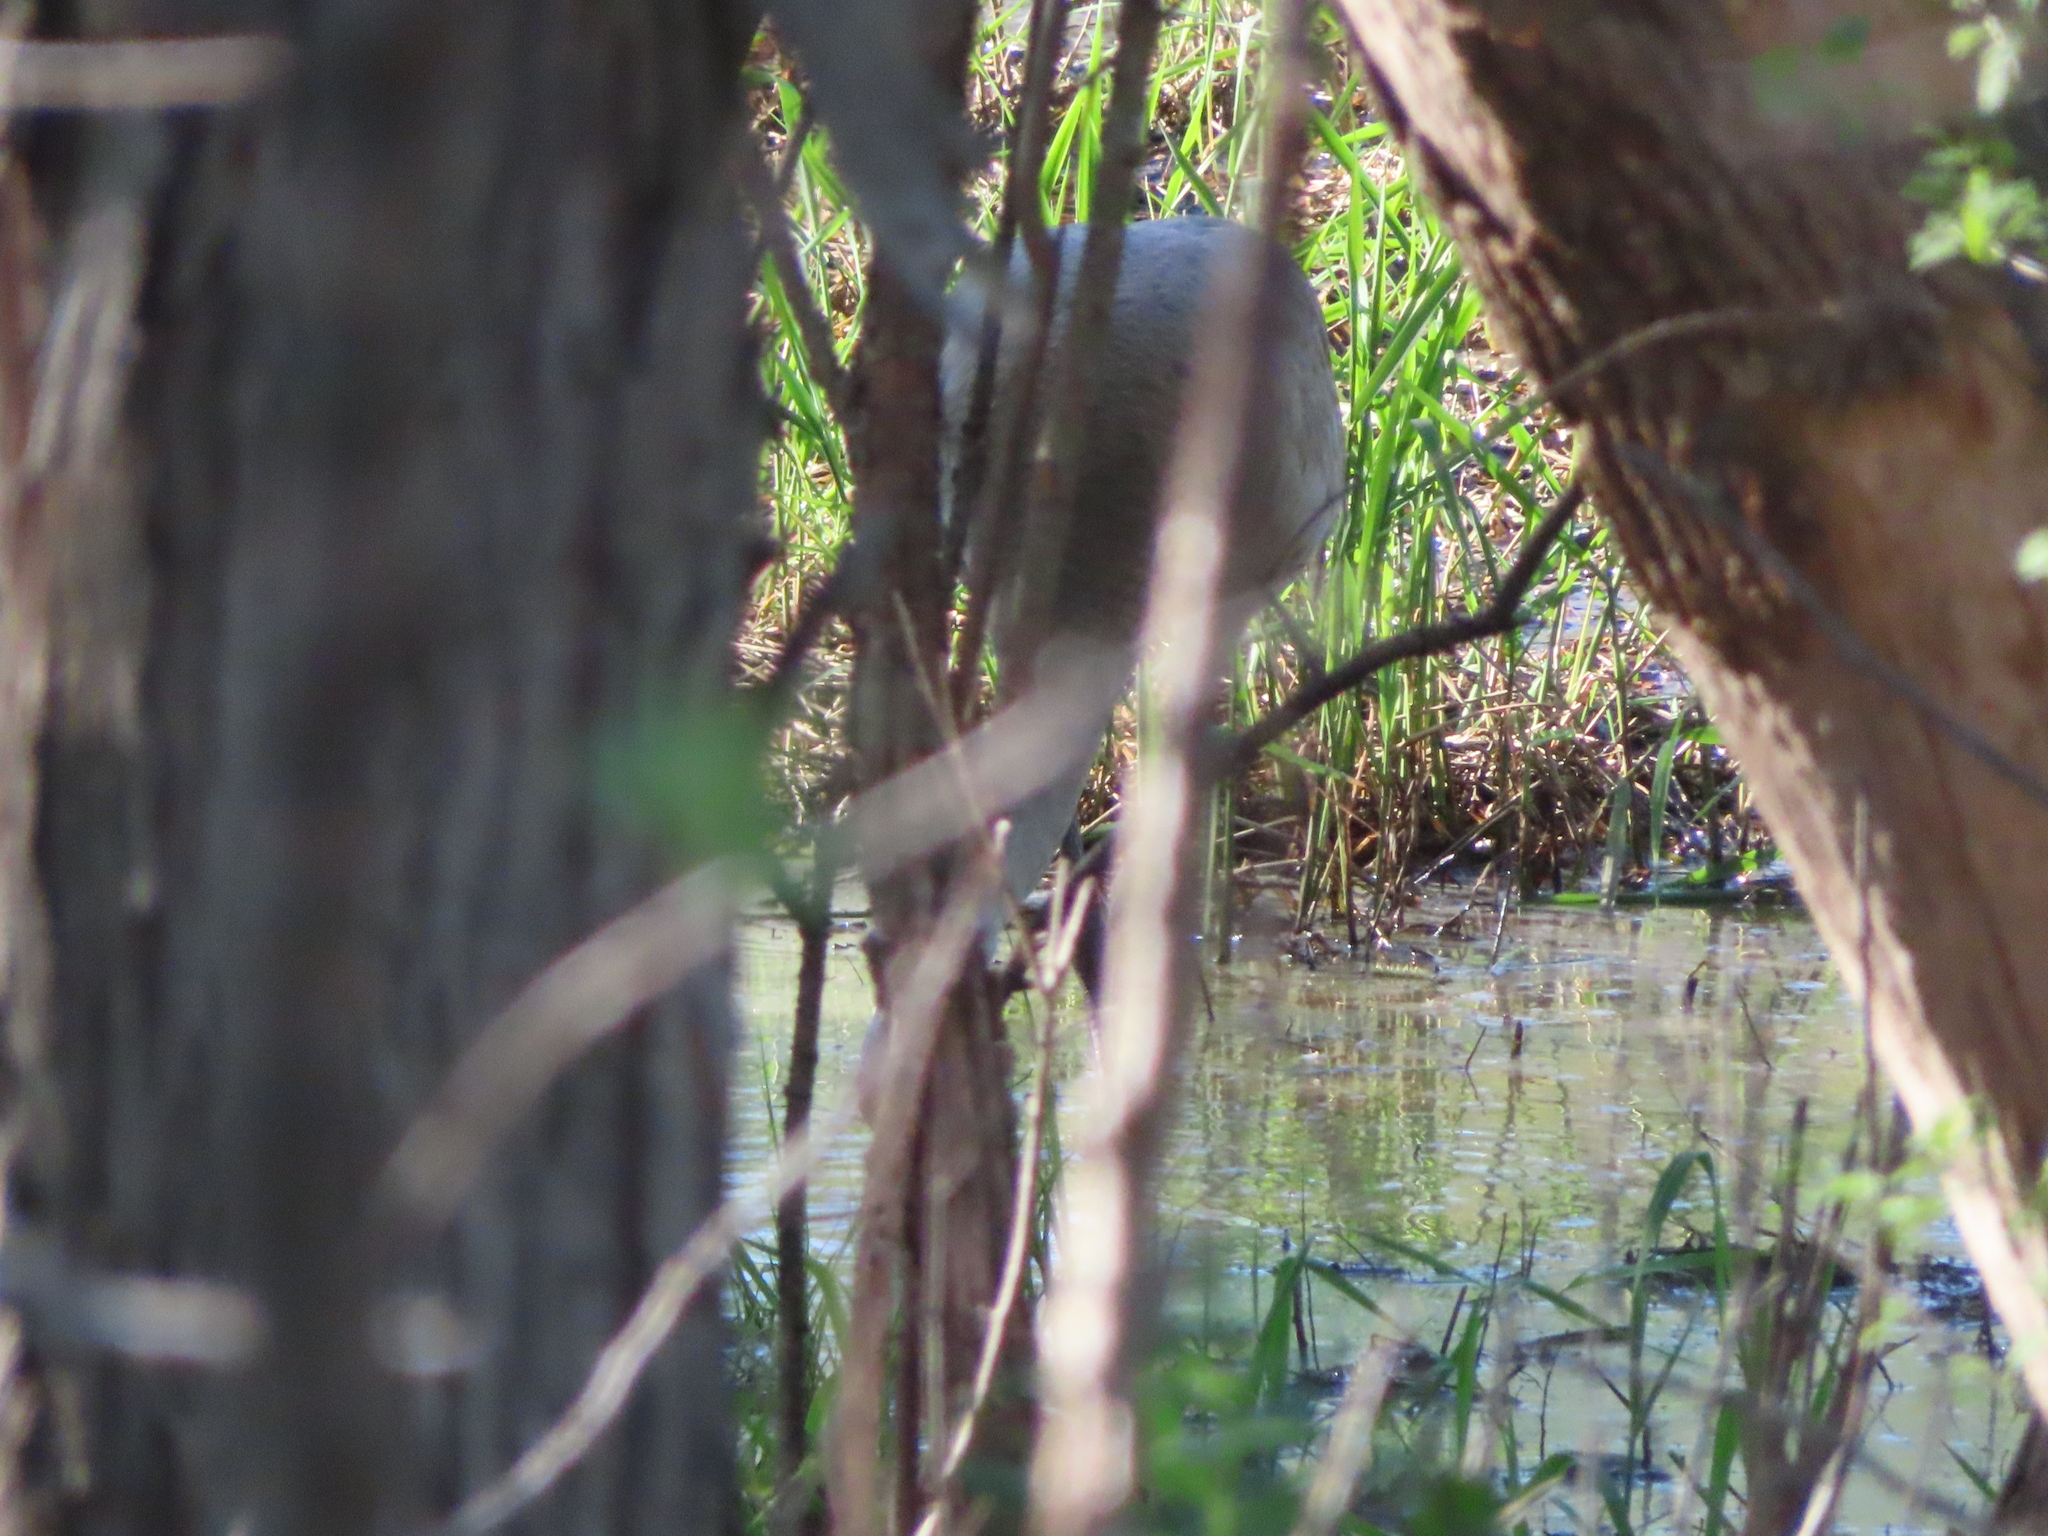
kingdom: Animalia
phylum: Chordata
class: Aves
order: Gruiformes
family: Gruidae
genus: Grus
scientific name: Grus canadensis
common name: Sandhill crane
